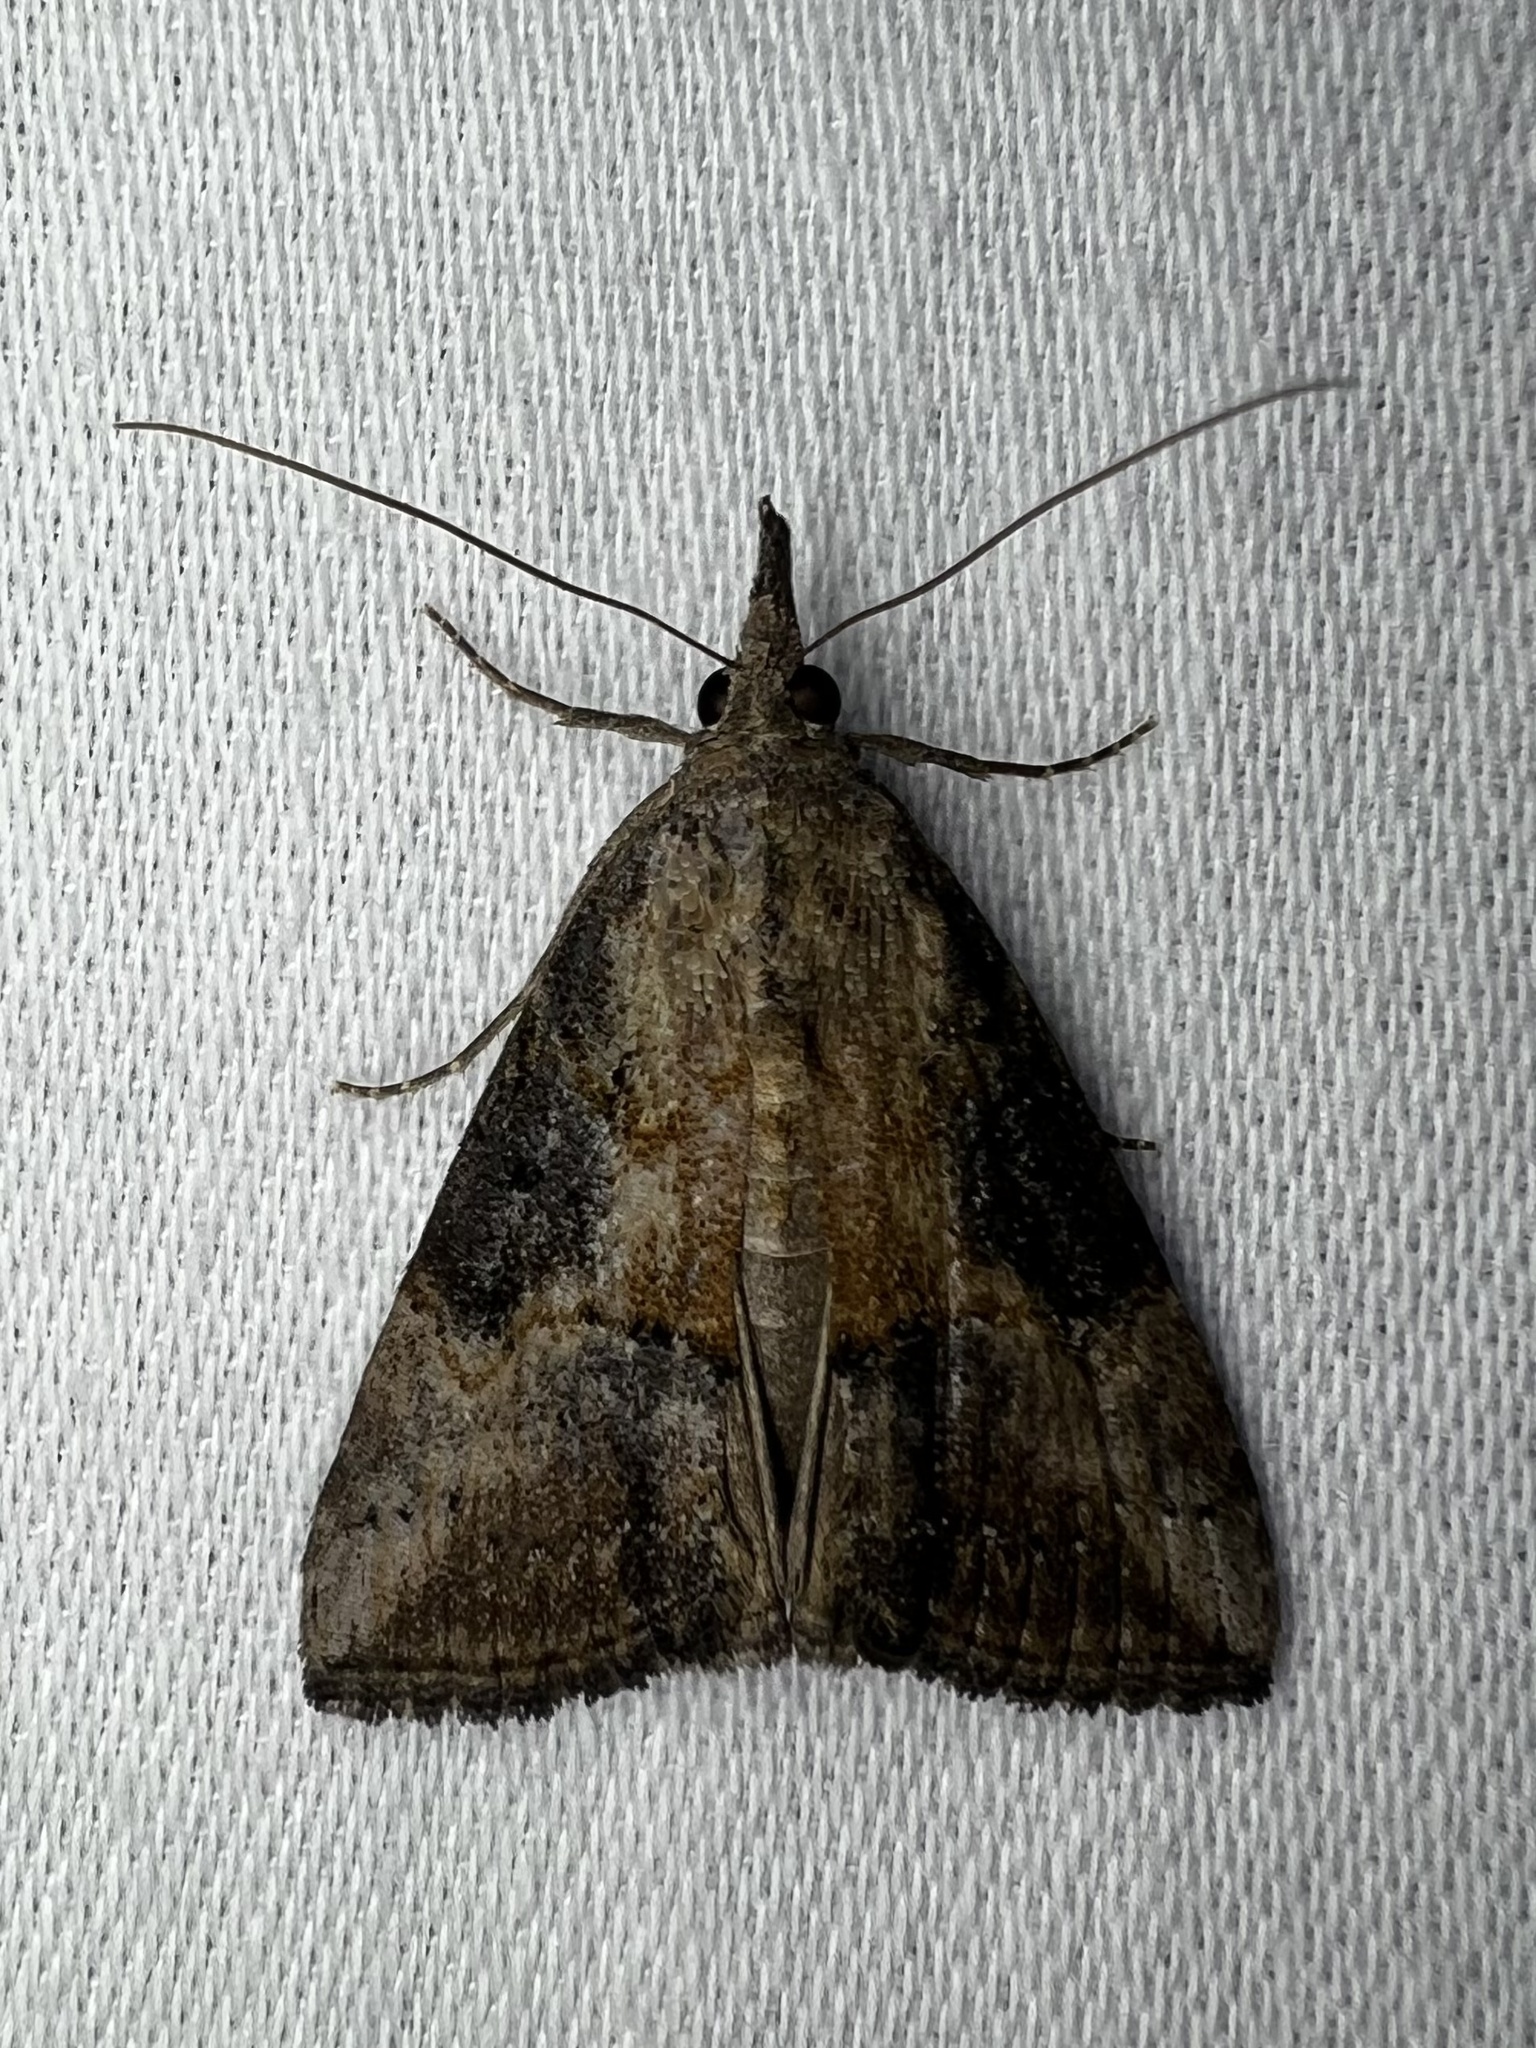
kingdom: Animalia
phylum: Arthropoda
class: Insecta
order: Lepidoptera
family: Erebidae
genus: Hypena
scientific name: Hypena scabra
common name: Green cloverworm
